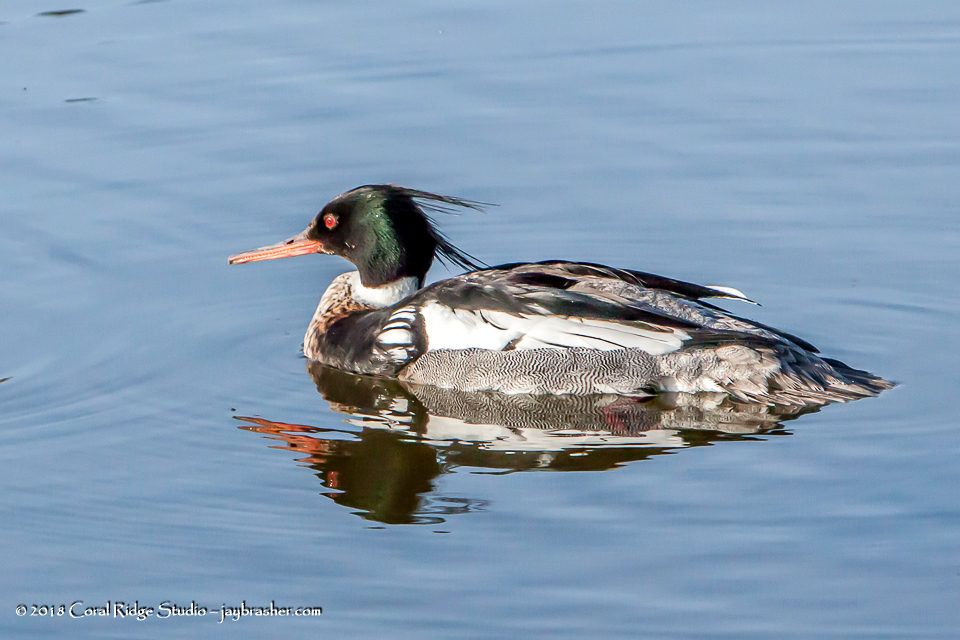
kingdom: Animalia
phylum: Chordata
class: Aves
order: Anseriformes
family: Anatidae
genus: Mergus
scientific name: Mergus serrator
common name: Red-breasted merganser
